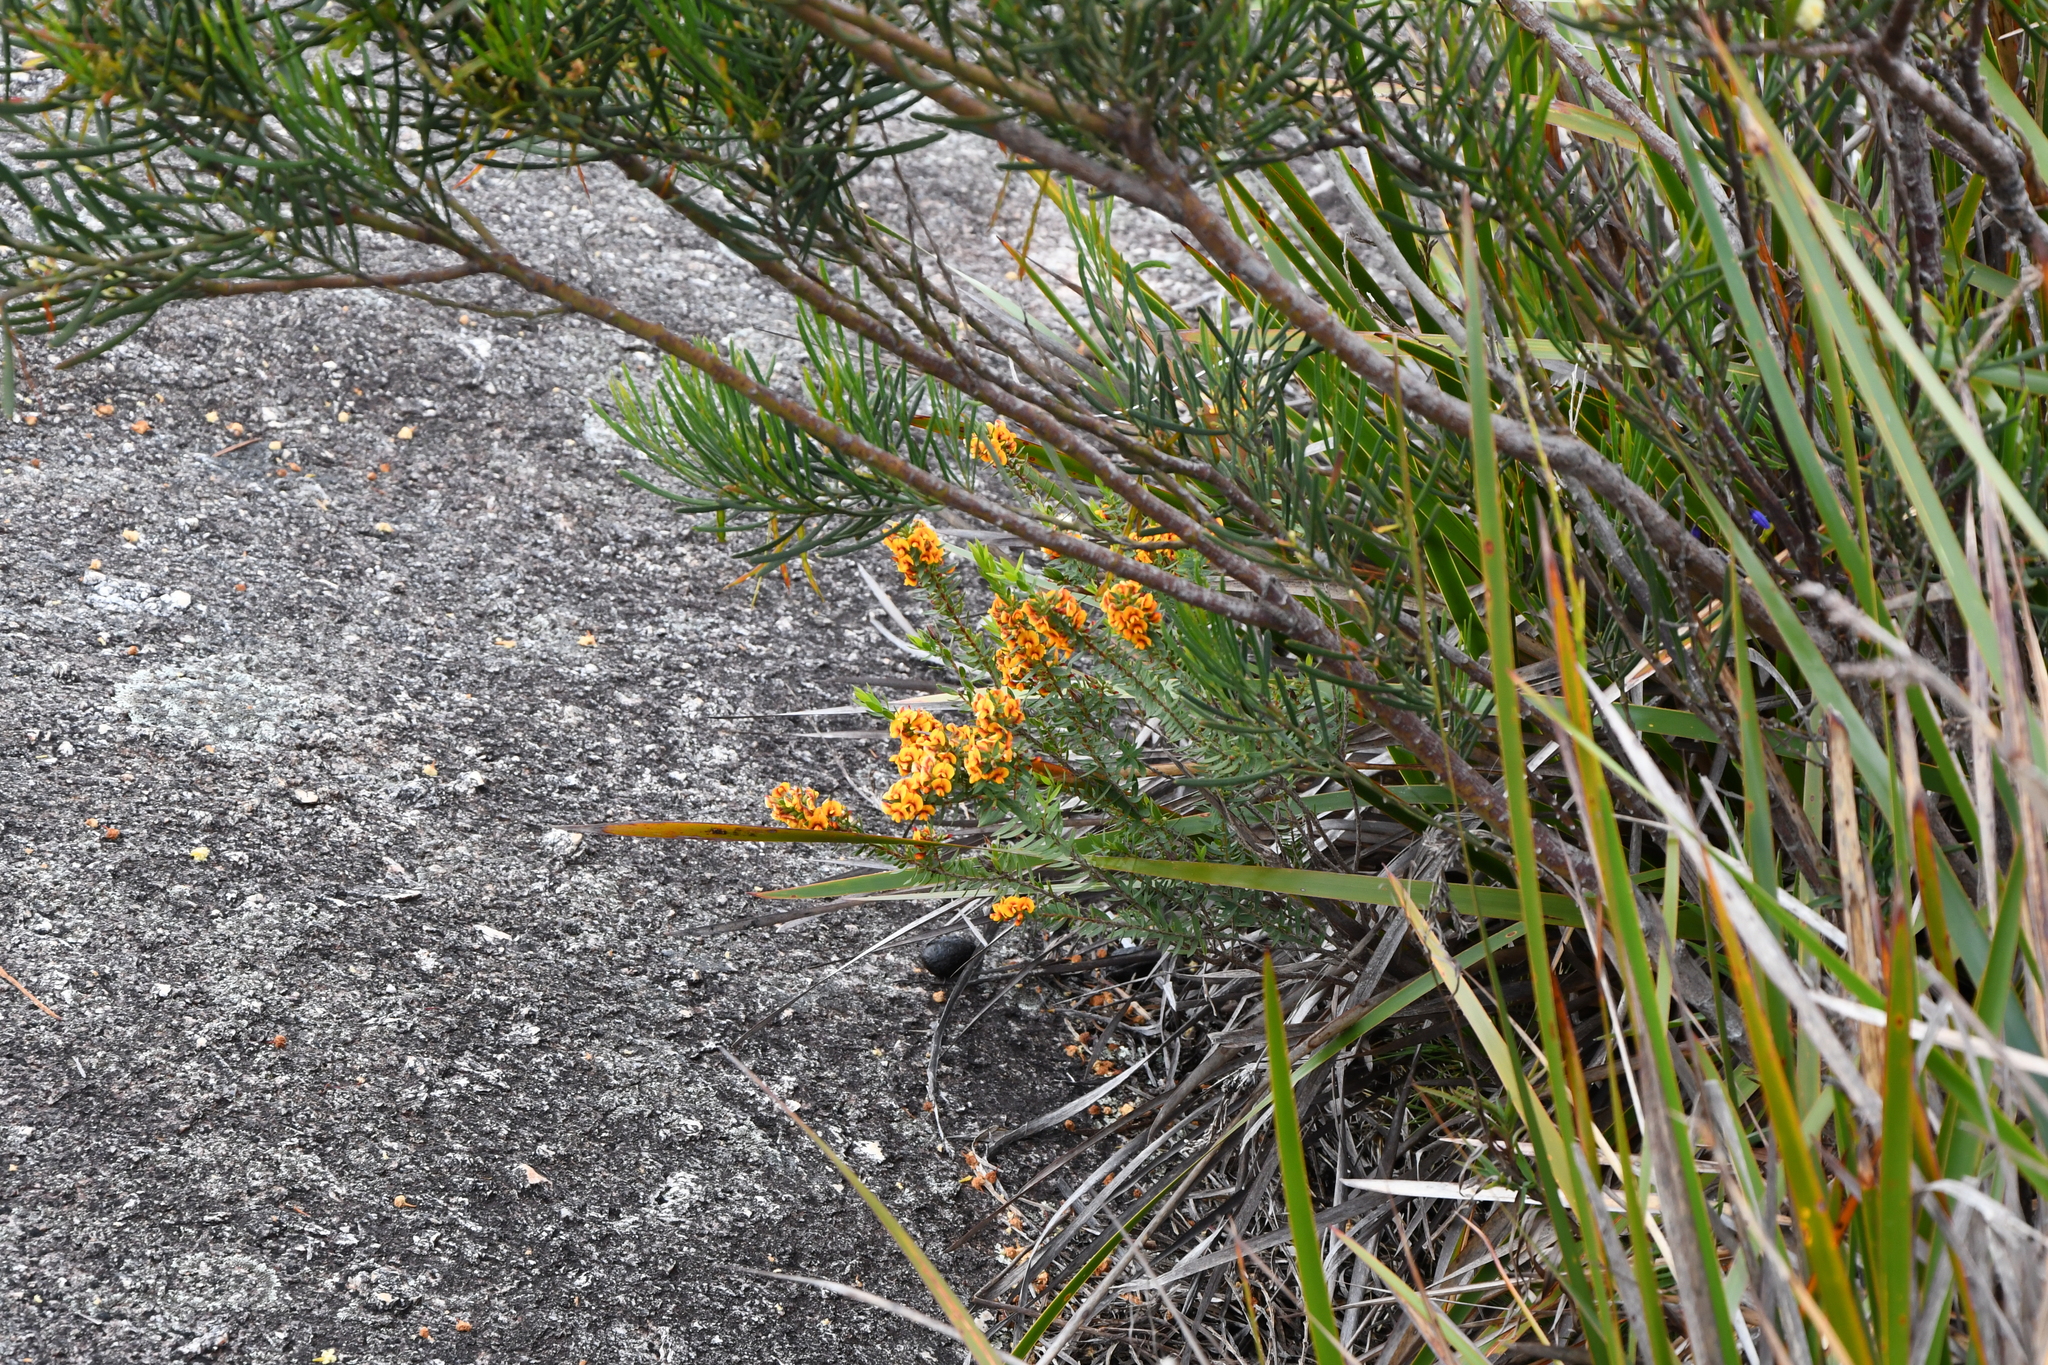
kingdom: Plantae
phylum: Tracheophyta
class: Magnoliopsida
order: Fabales
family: Fabaceae
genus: Eutaxia
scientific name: Eutaxia myrtifolia
